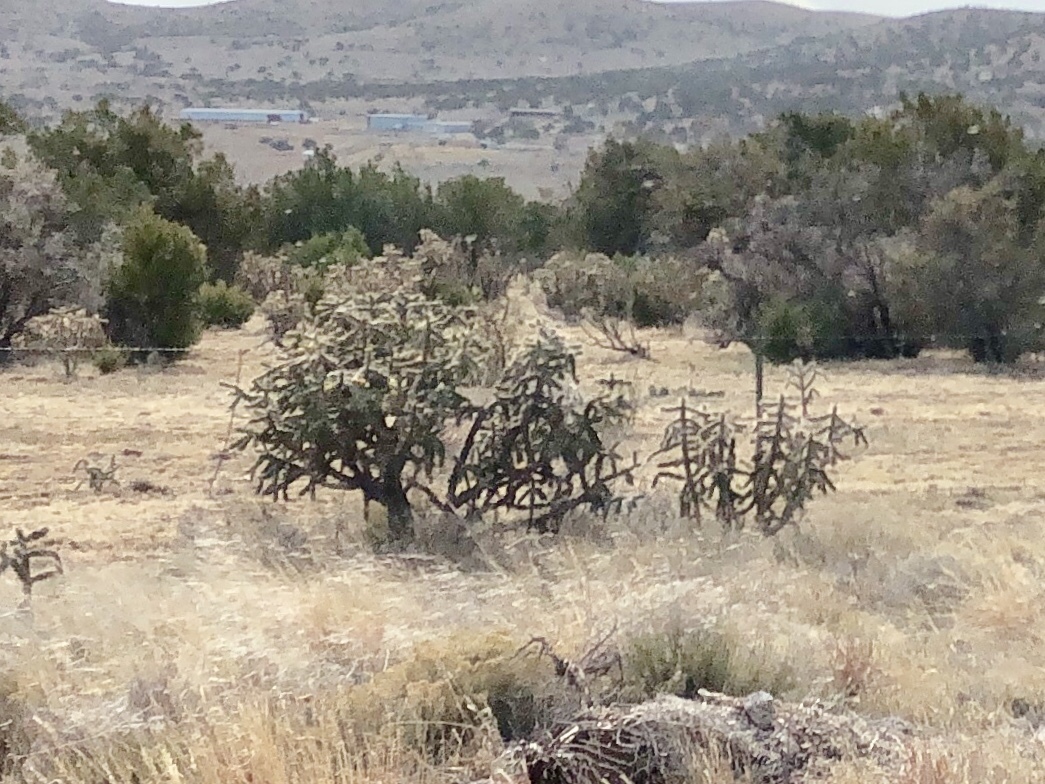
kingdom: Plantae
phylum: Tracheophyta
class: Magnoliopsida
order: Caryophyllales
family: Cactaceae
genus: Cylindropuntia
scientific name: Cylindropuntia imbricata
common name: Candelabrum cactus
